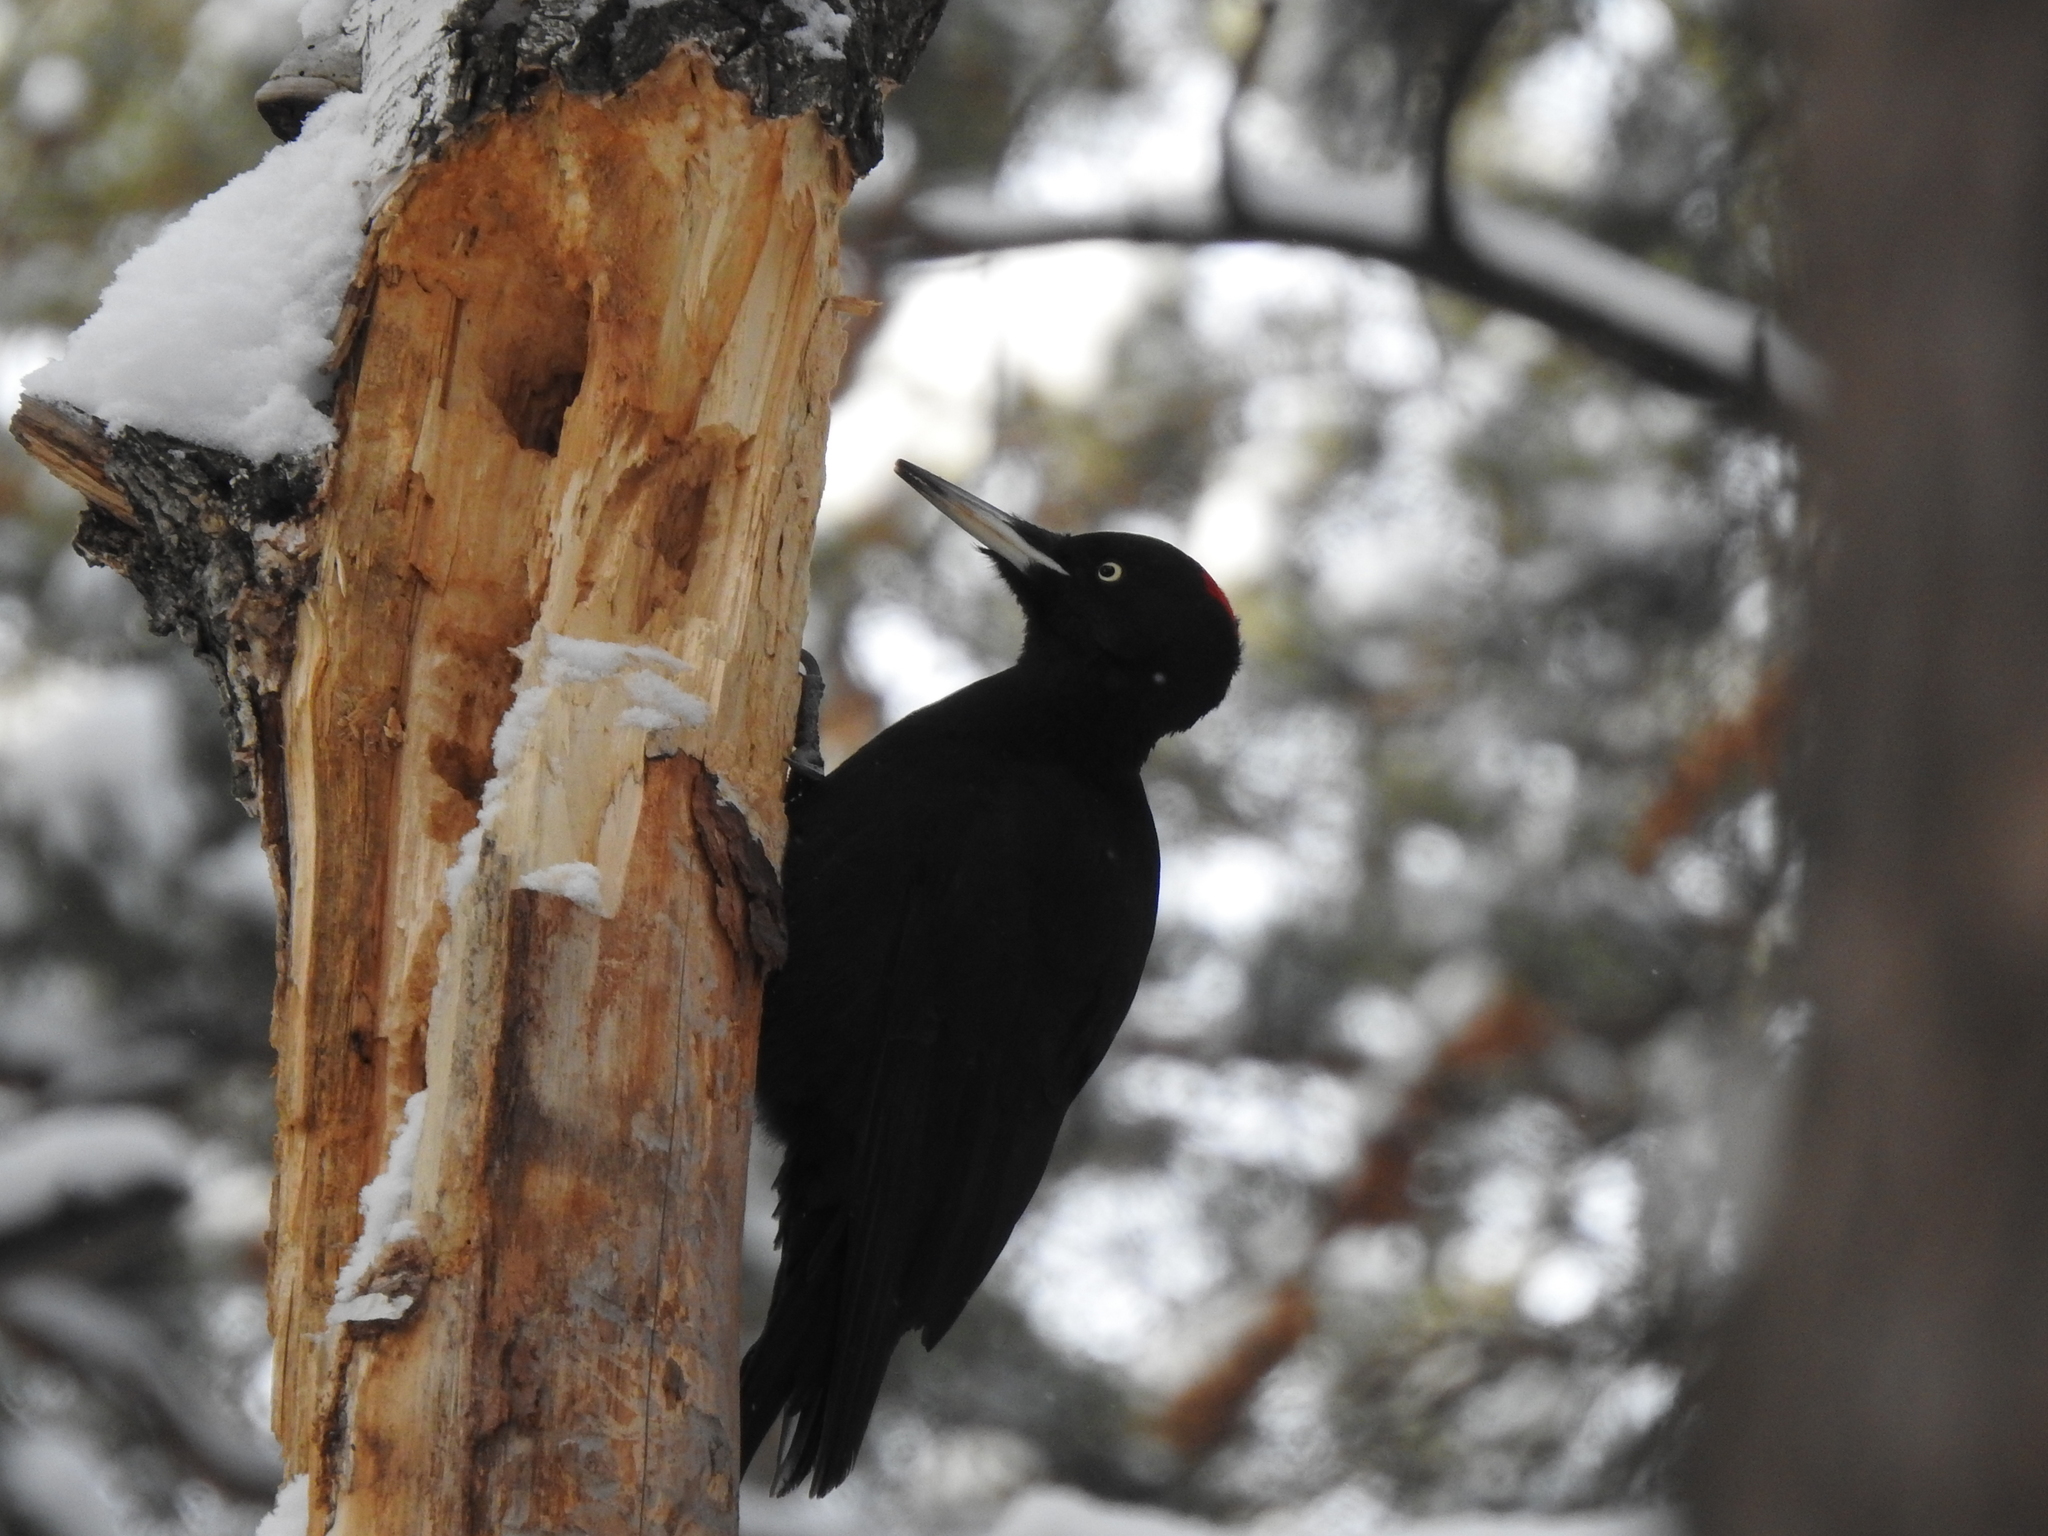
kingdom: Animalia
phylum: Chordata
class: Aves
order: Piciformes
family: Picidae
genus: Dryocopus
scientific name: Dryocopus martius
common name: Black woodpecker
